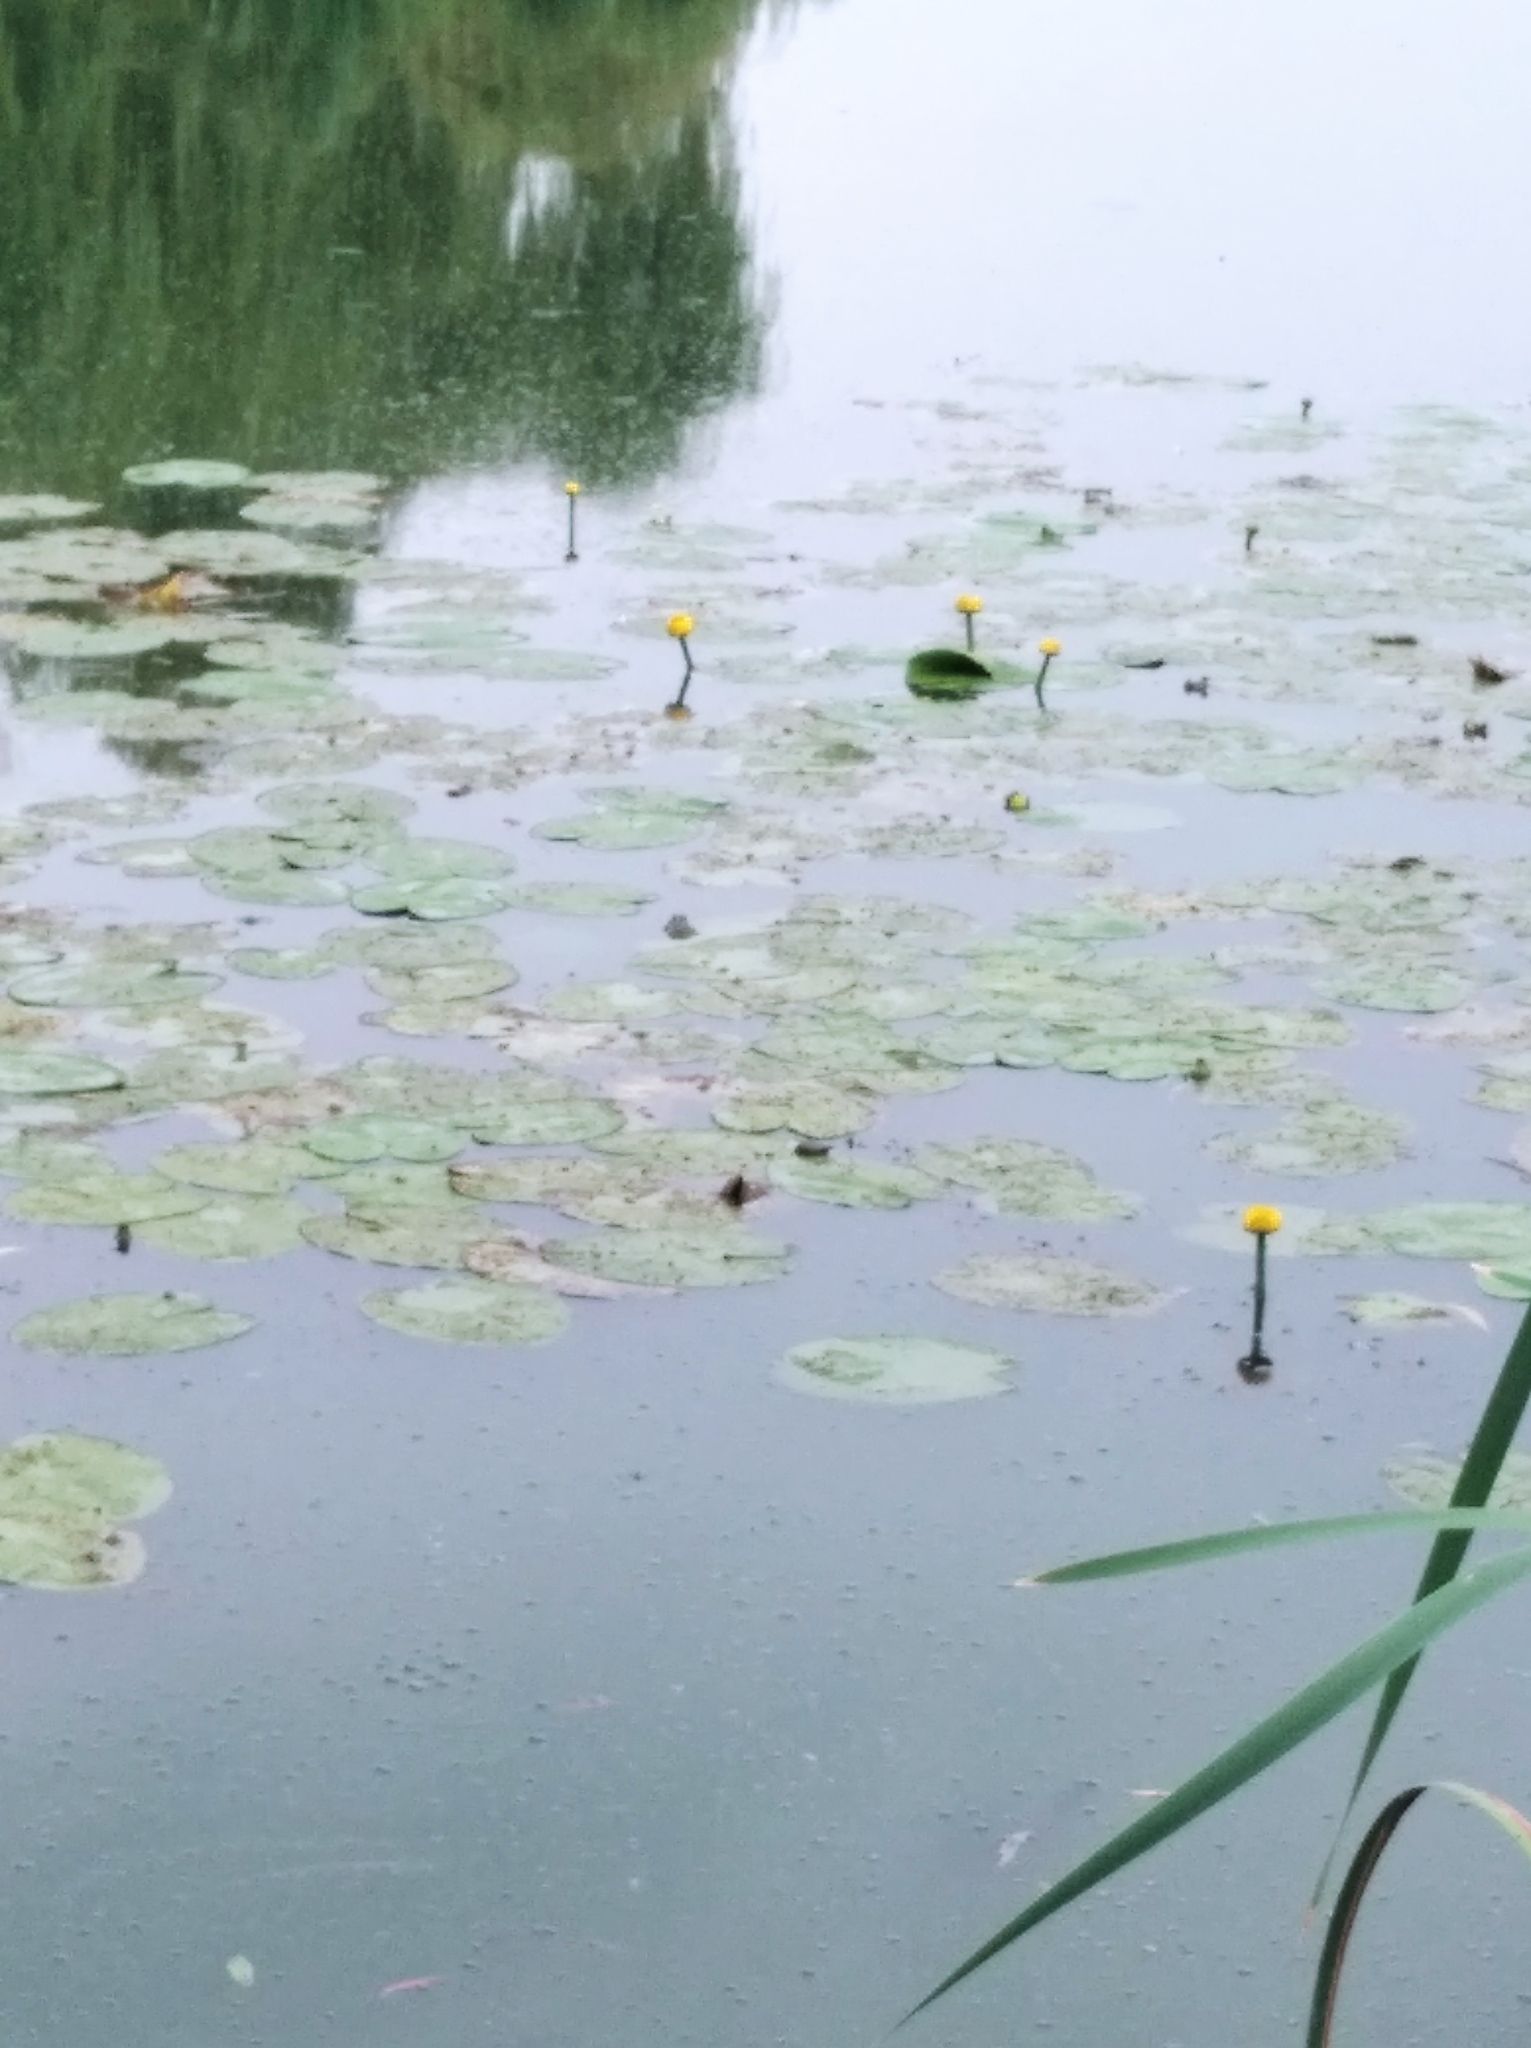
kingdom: Plantae
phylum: Tracheophyta
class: Magnoliopsida
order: Nymphaeales
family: Nymphaeaceae
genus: Nuphar
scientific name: Nuphar lutea
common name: Yellow water-lily
